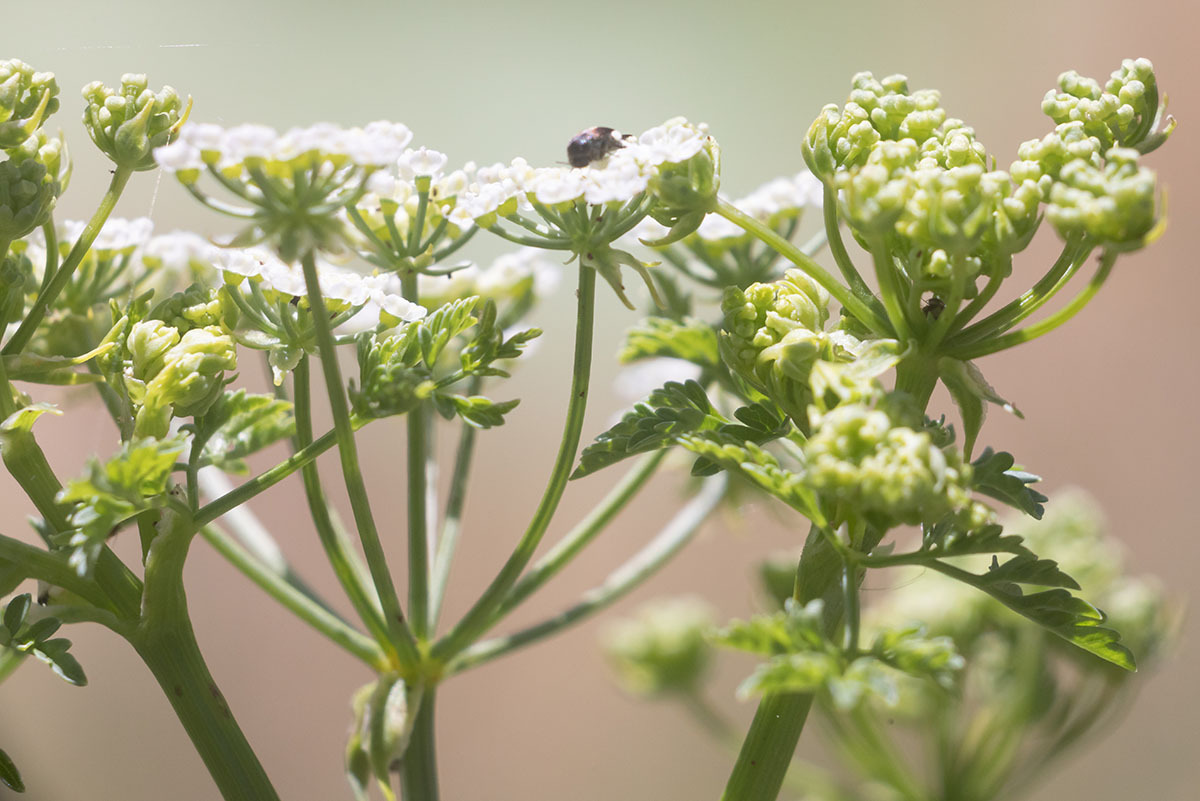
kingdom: Plantae
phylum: Tracheophyta
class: Magnoliopsida
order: Apiales
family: Apiaceae
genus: Conium
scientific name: Conium maculatum
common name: Hemlock
